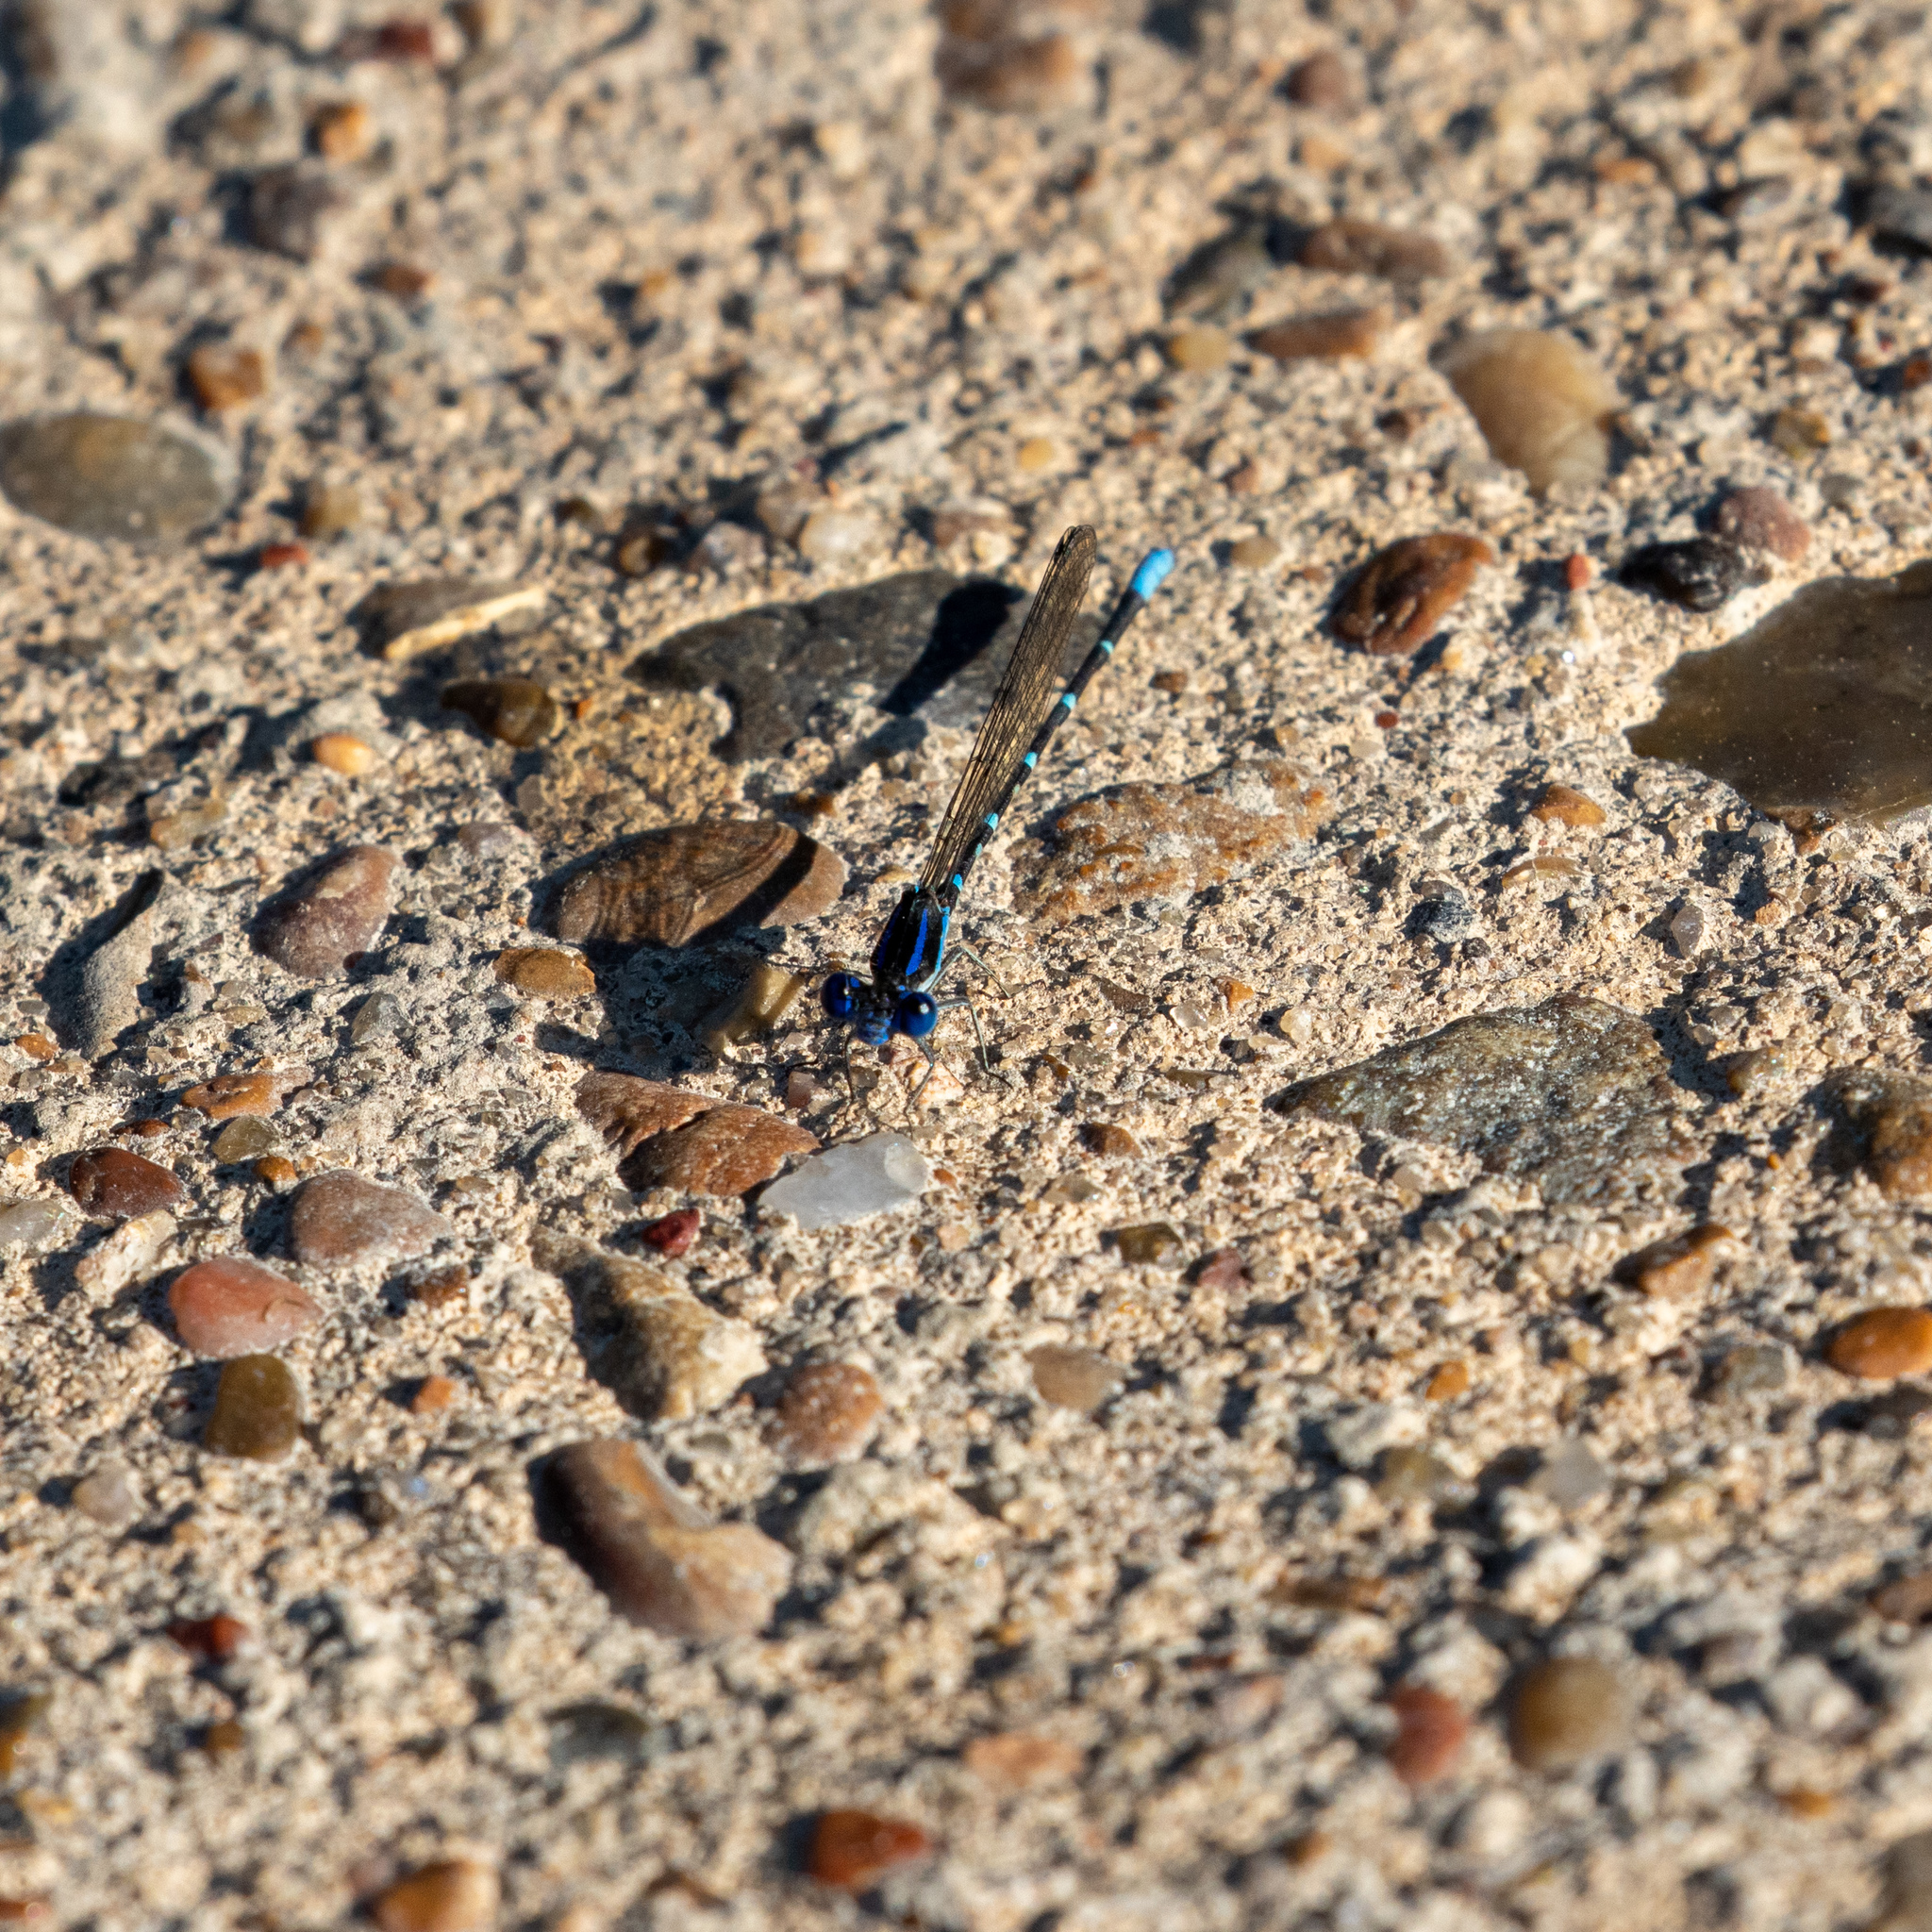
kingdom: Animalia
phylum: Arthropoda
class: Insecta
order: Odonata
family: Coenagrionidae
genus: Argia
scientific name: Argia sedula
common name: Blue-ringed dancer
